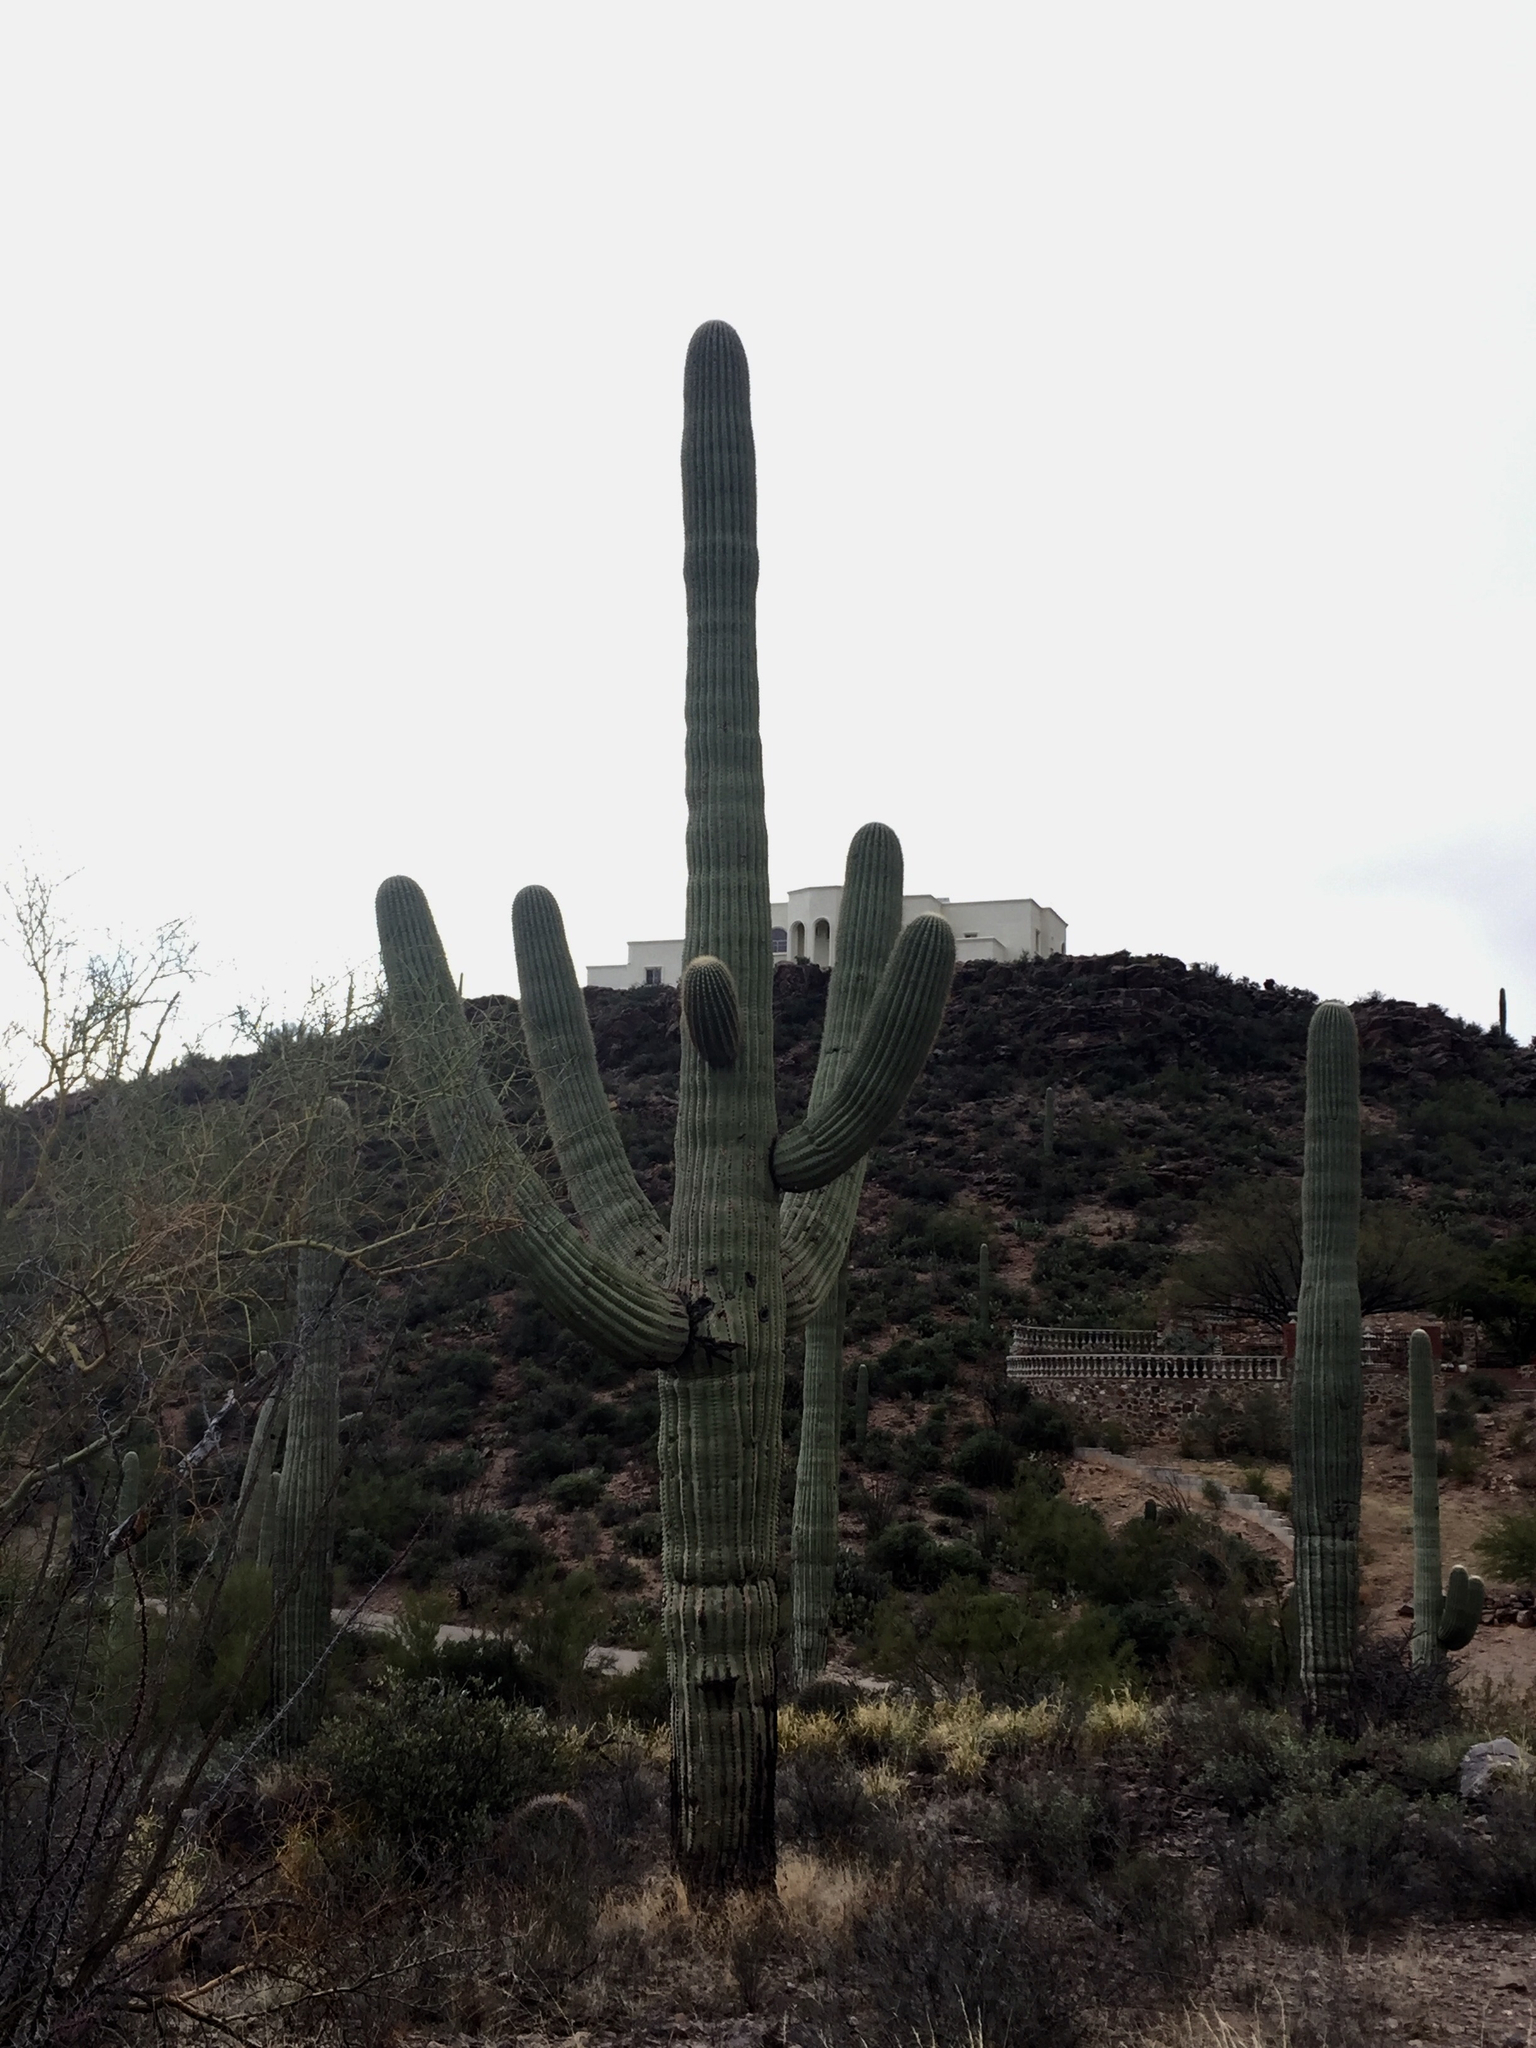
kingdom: Plantae
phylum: Tracheophyta
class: Magnoliopsida
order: Caryophyllales
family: Cactaceae
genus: Carnegiea
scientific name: Carnegiea gigantea
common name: Saguaro
